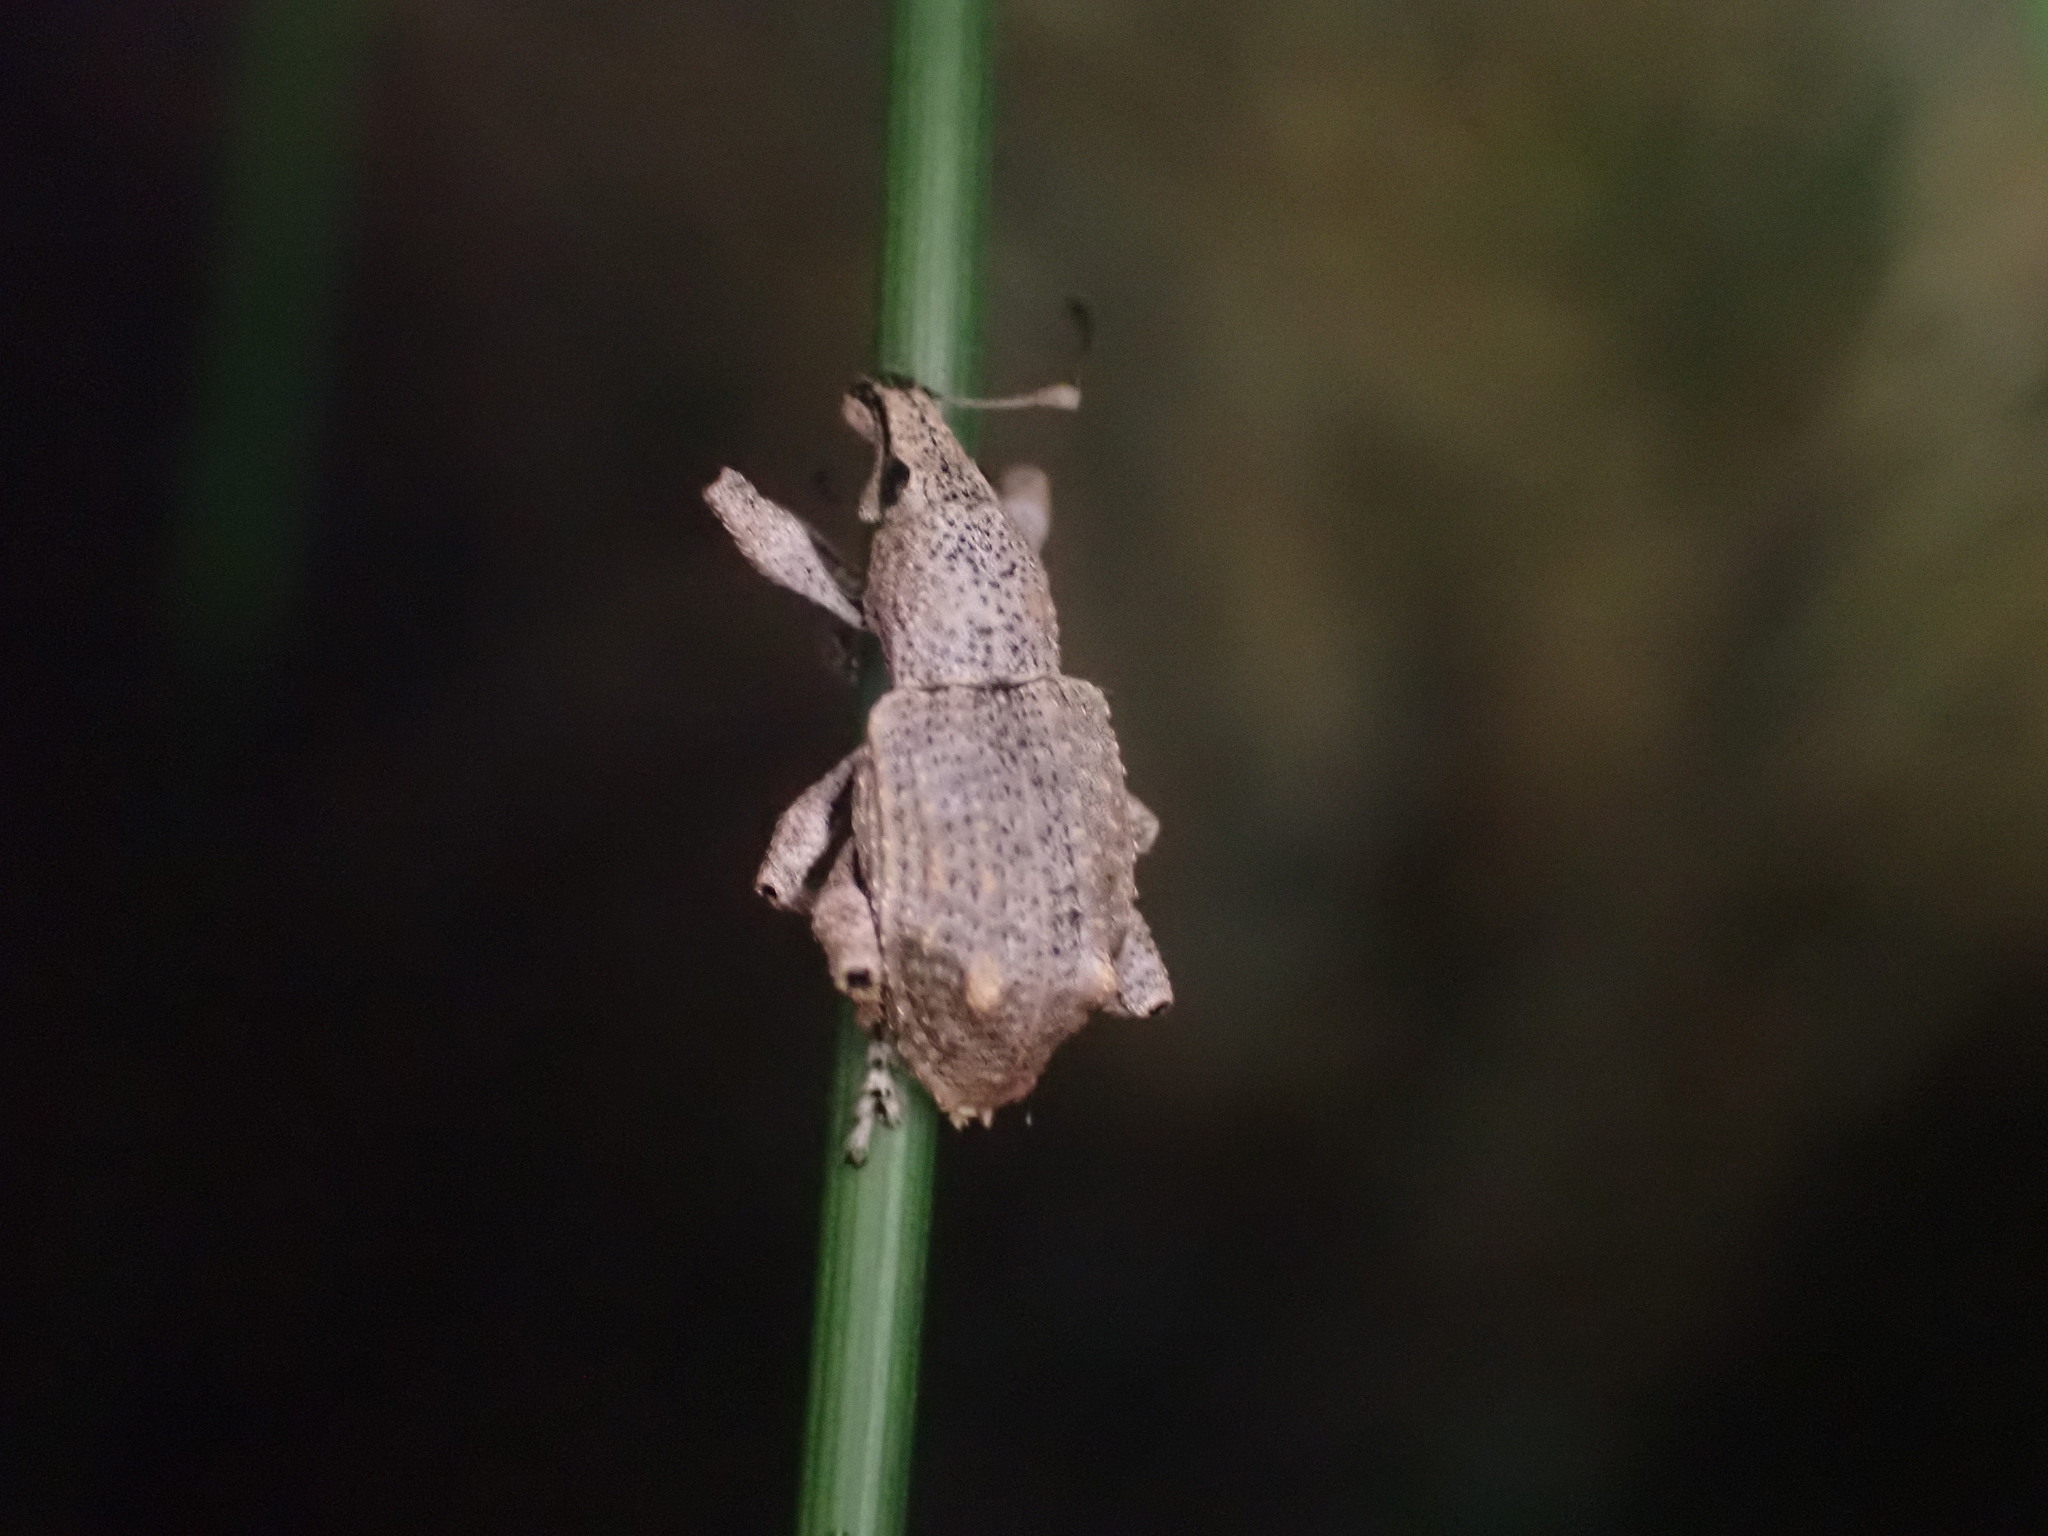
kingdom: Animalia
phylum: Arthropoda
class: Insecta
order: Coleoptera
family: Curculionidae
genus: Catoptes
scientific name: Catoptes binodis
